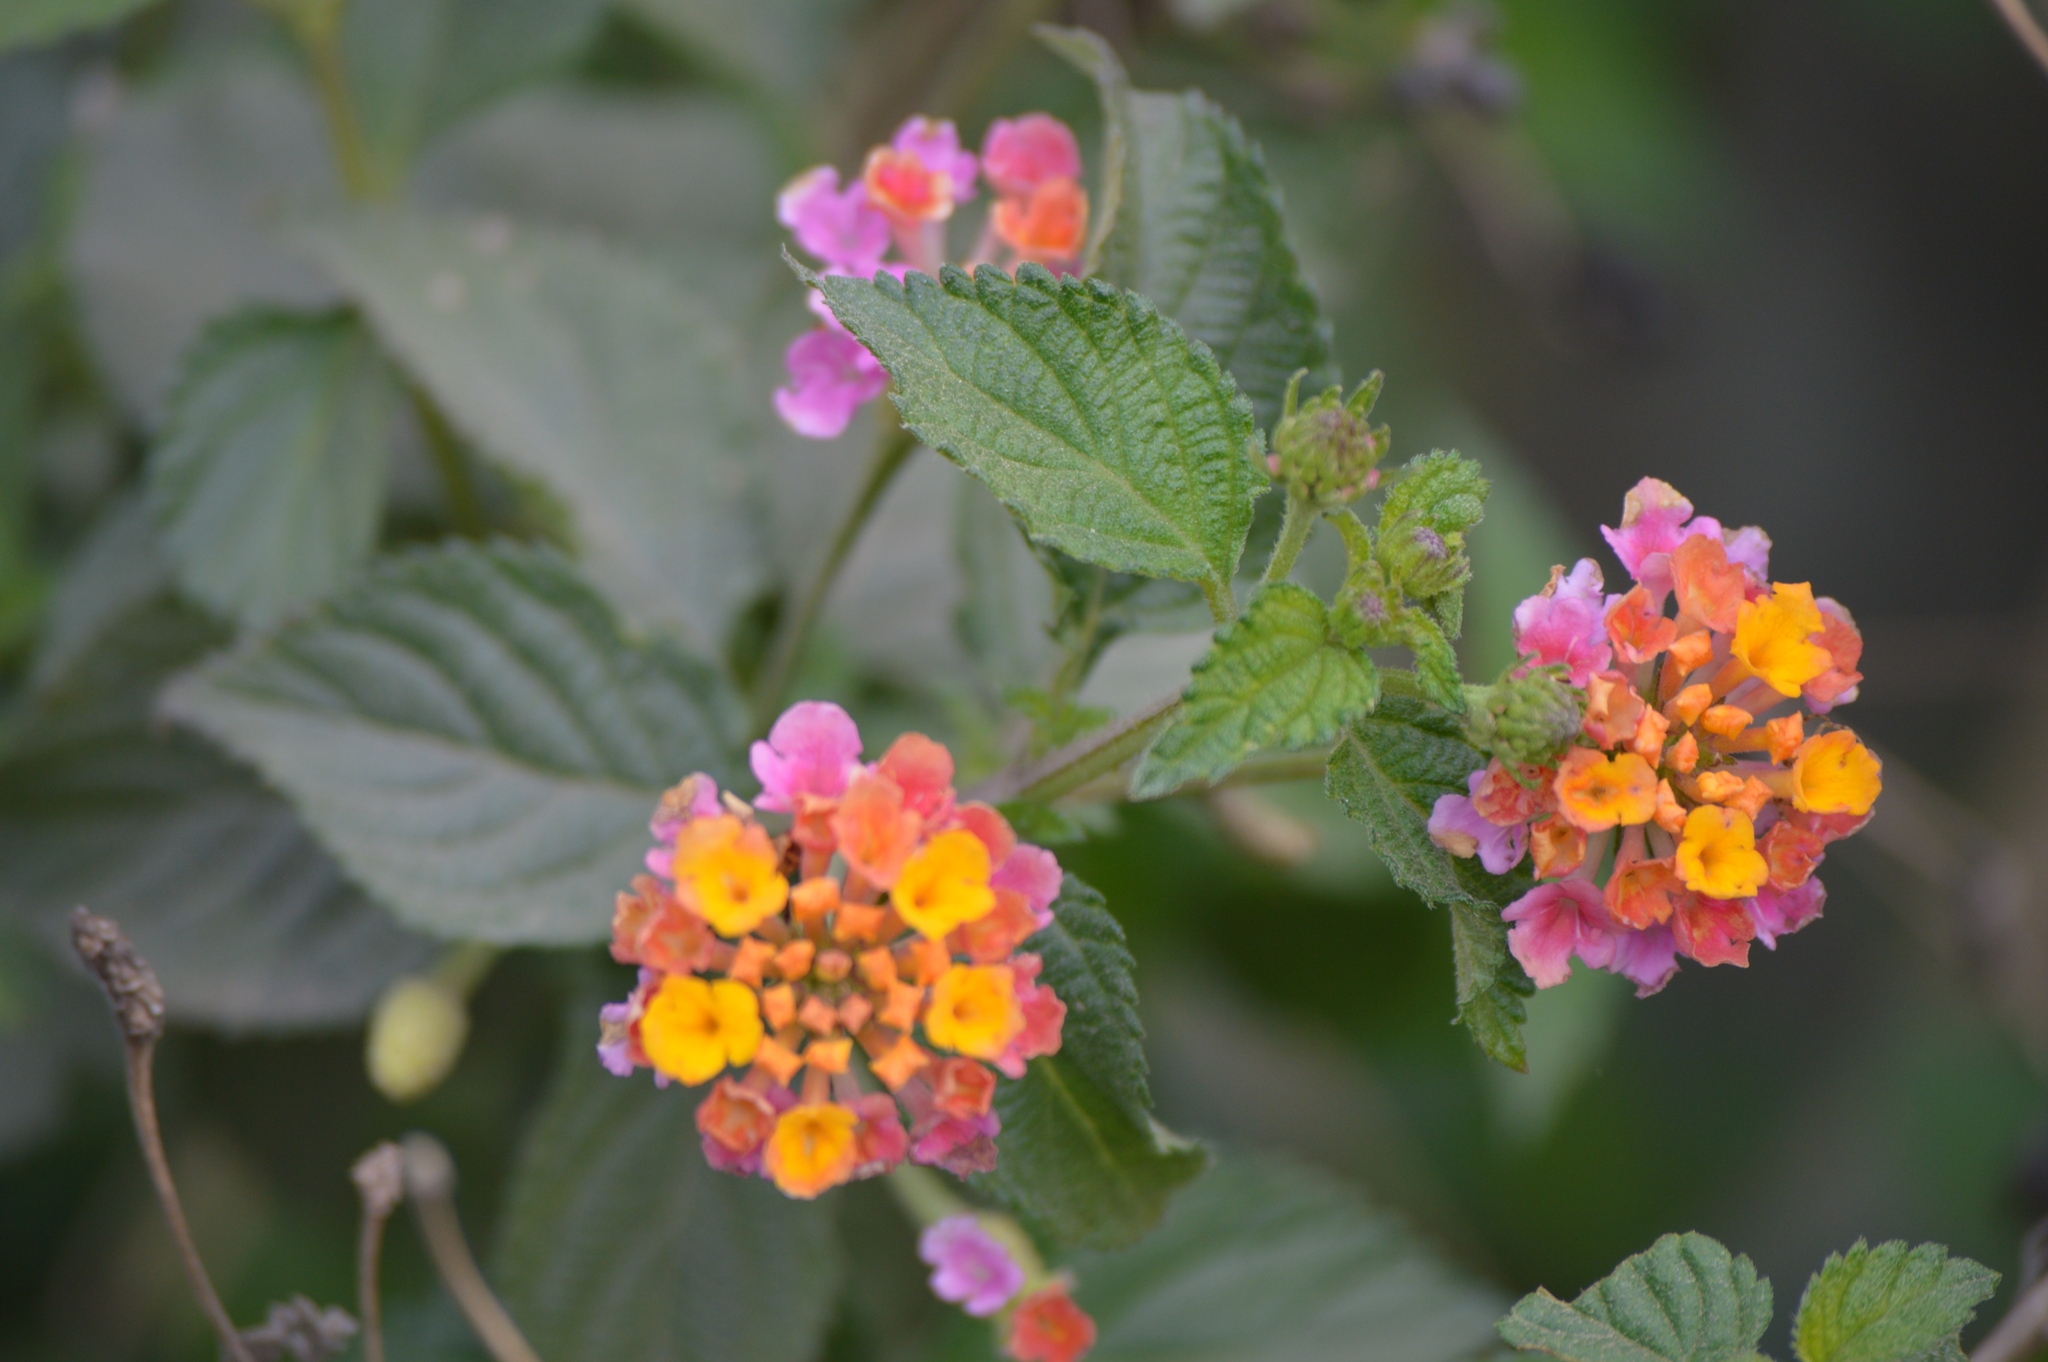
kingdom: Plantae
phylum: Tracheophyta
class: Magnoliopsida
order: Lamiales
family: Verbenaceae
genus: Lantana
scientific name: Lantana camara
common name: Lantana
